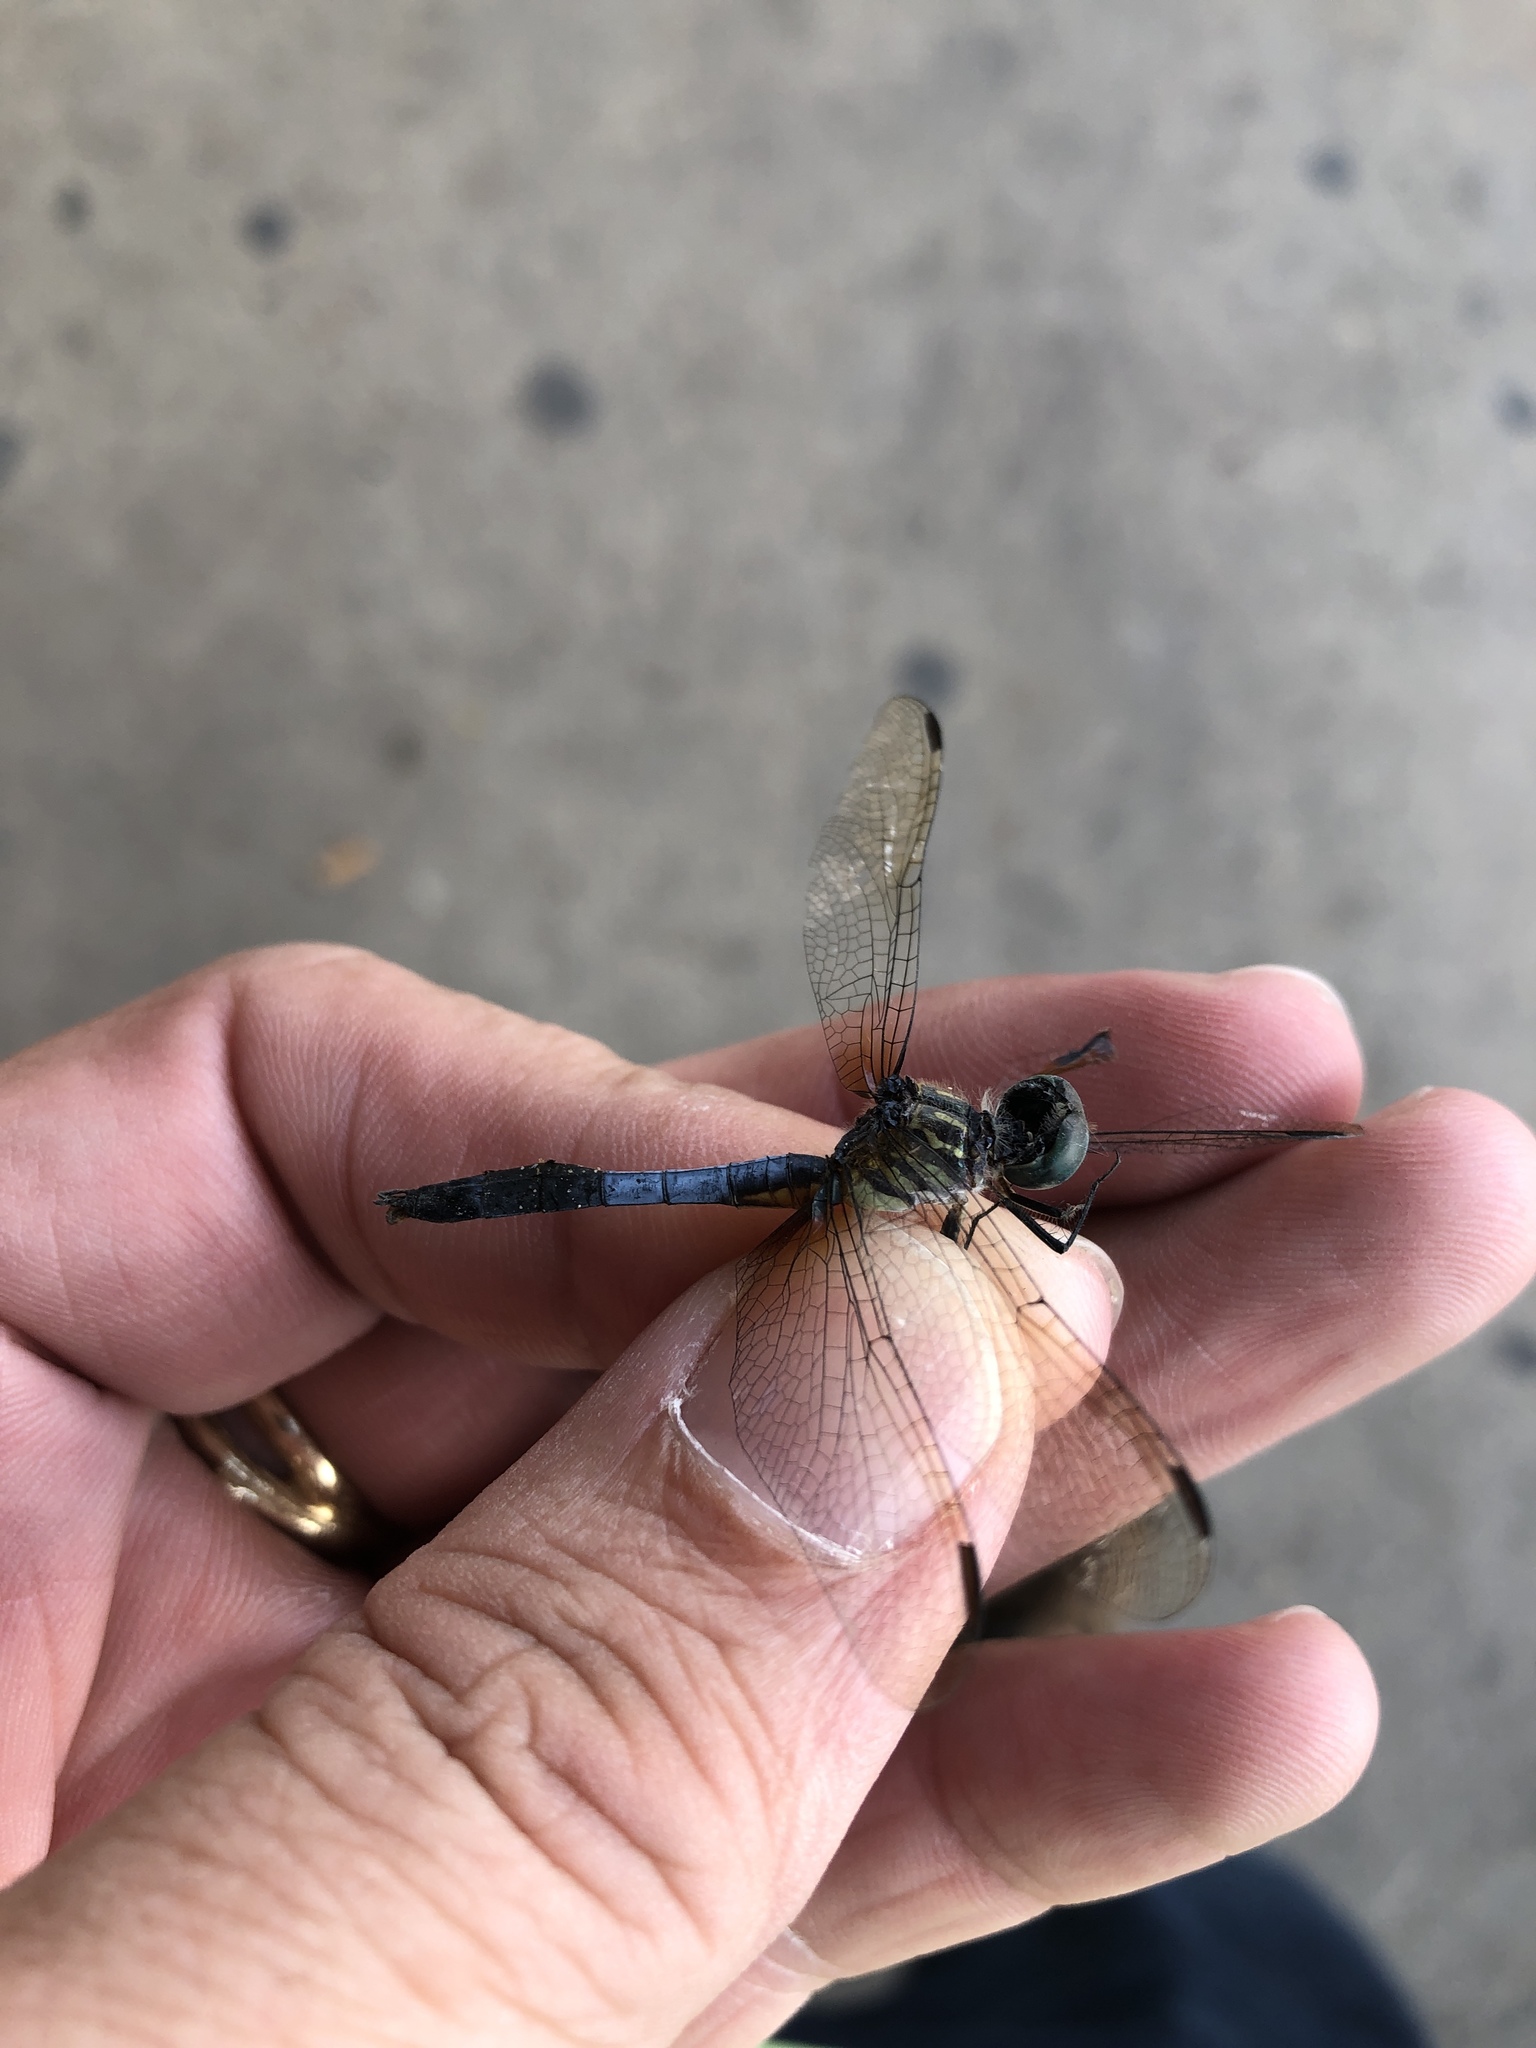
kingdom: Animalia
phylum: Arthropoda
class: Insecta
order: Odonata
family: Libellulidae
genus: Pachydiplax
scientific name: Pachydiplax longipennis
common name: Blue dasher
